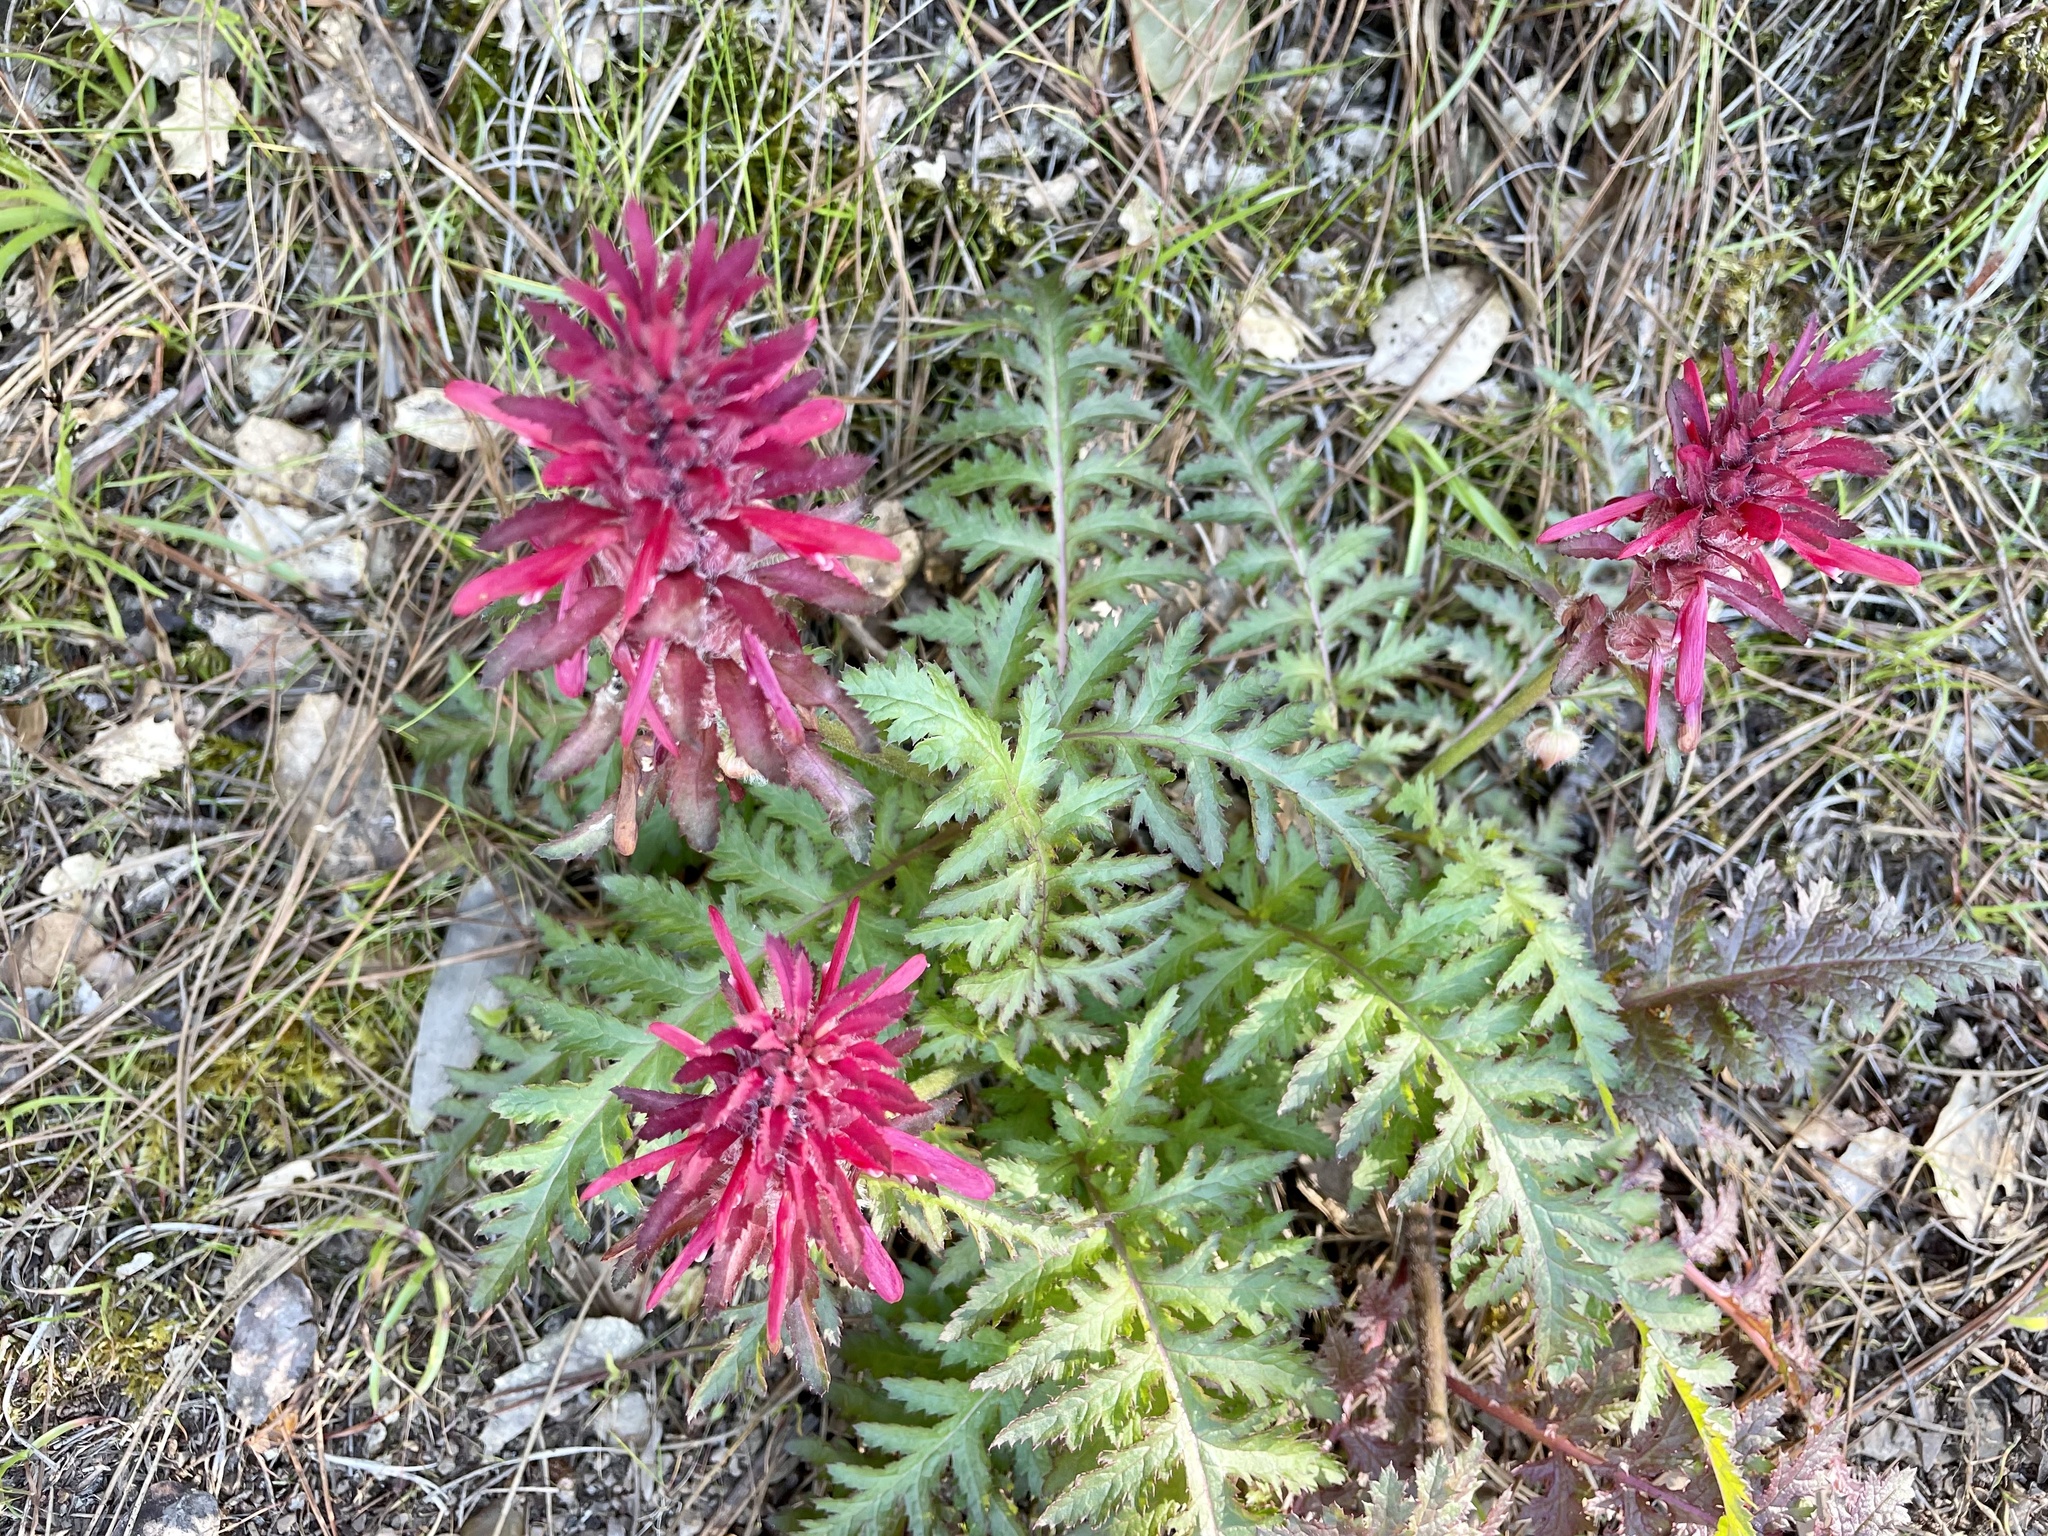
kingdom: Plantae
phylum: Tracheophyta
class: Magnoliopsida
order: Lamiales
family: Orobanchaceae
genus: Pedicularis
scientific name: Pedicularis densiflora
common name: Indian warrior
